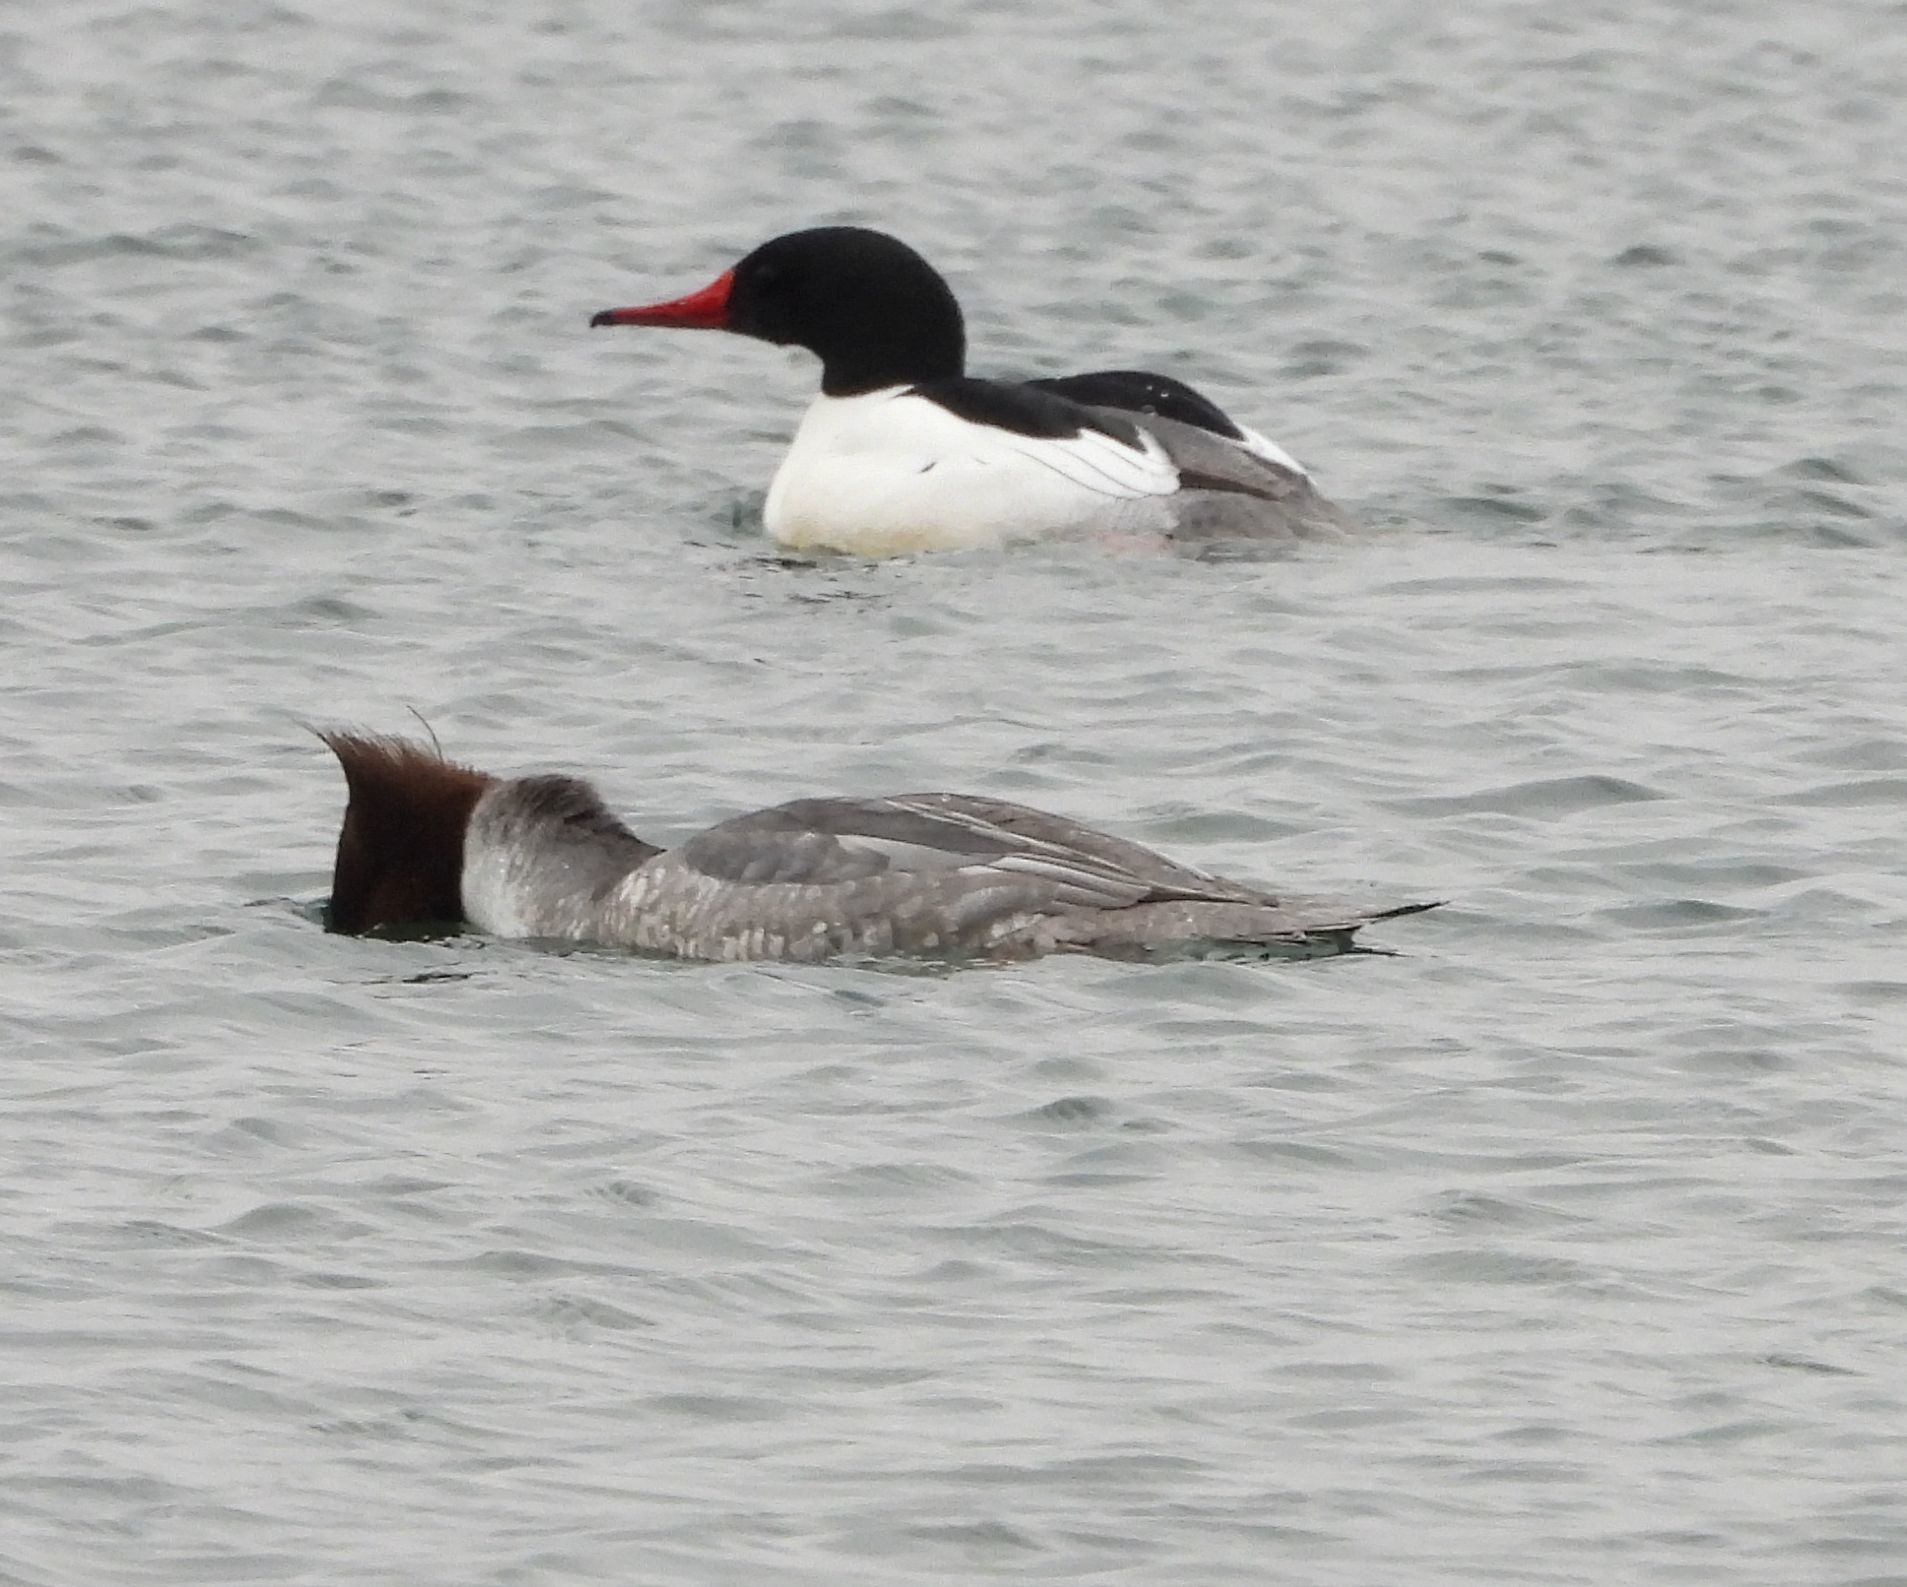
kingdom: Animalia
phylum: Chordata
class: Aves
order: Anseriformes
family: Anatidae
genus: Mergus
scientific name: Mergus merganser
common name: Common merganser
